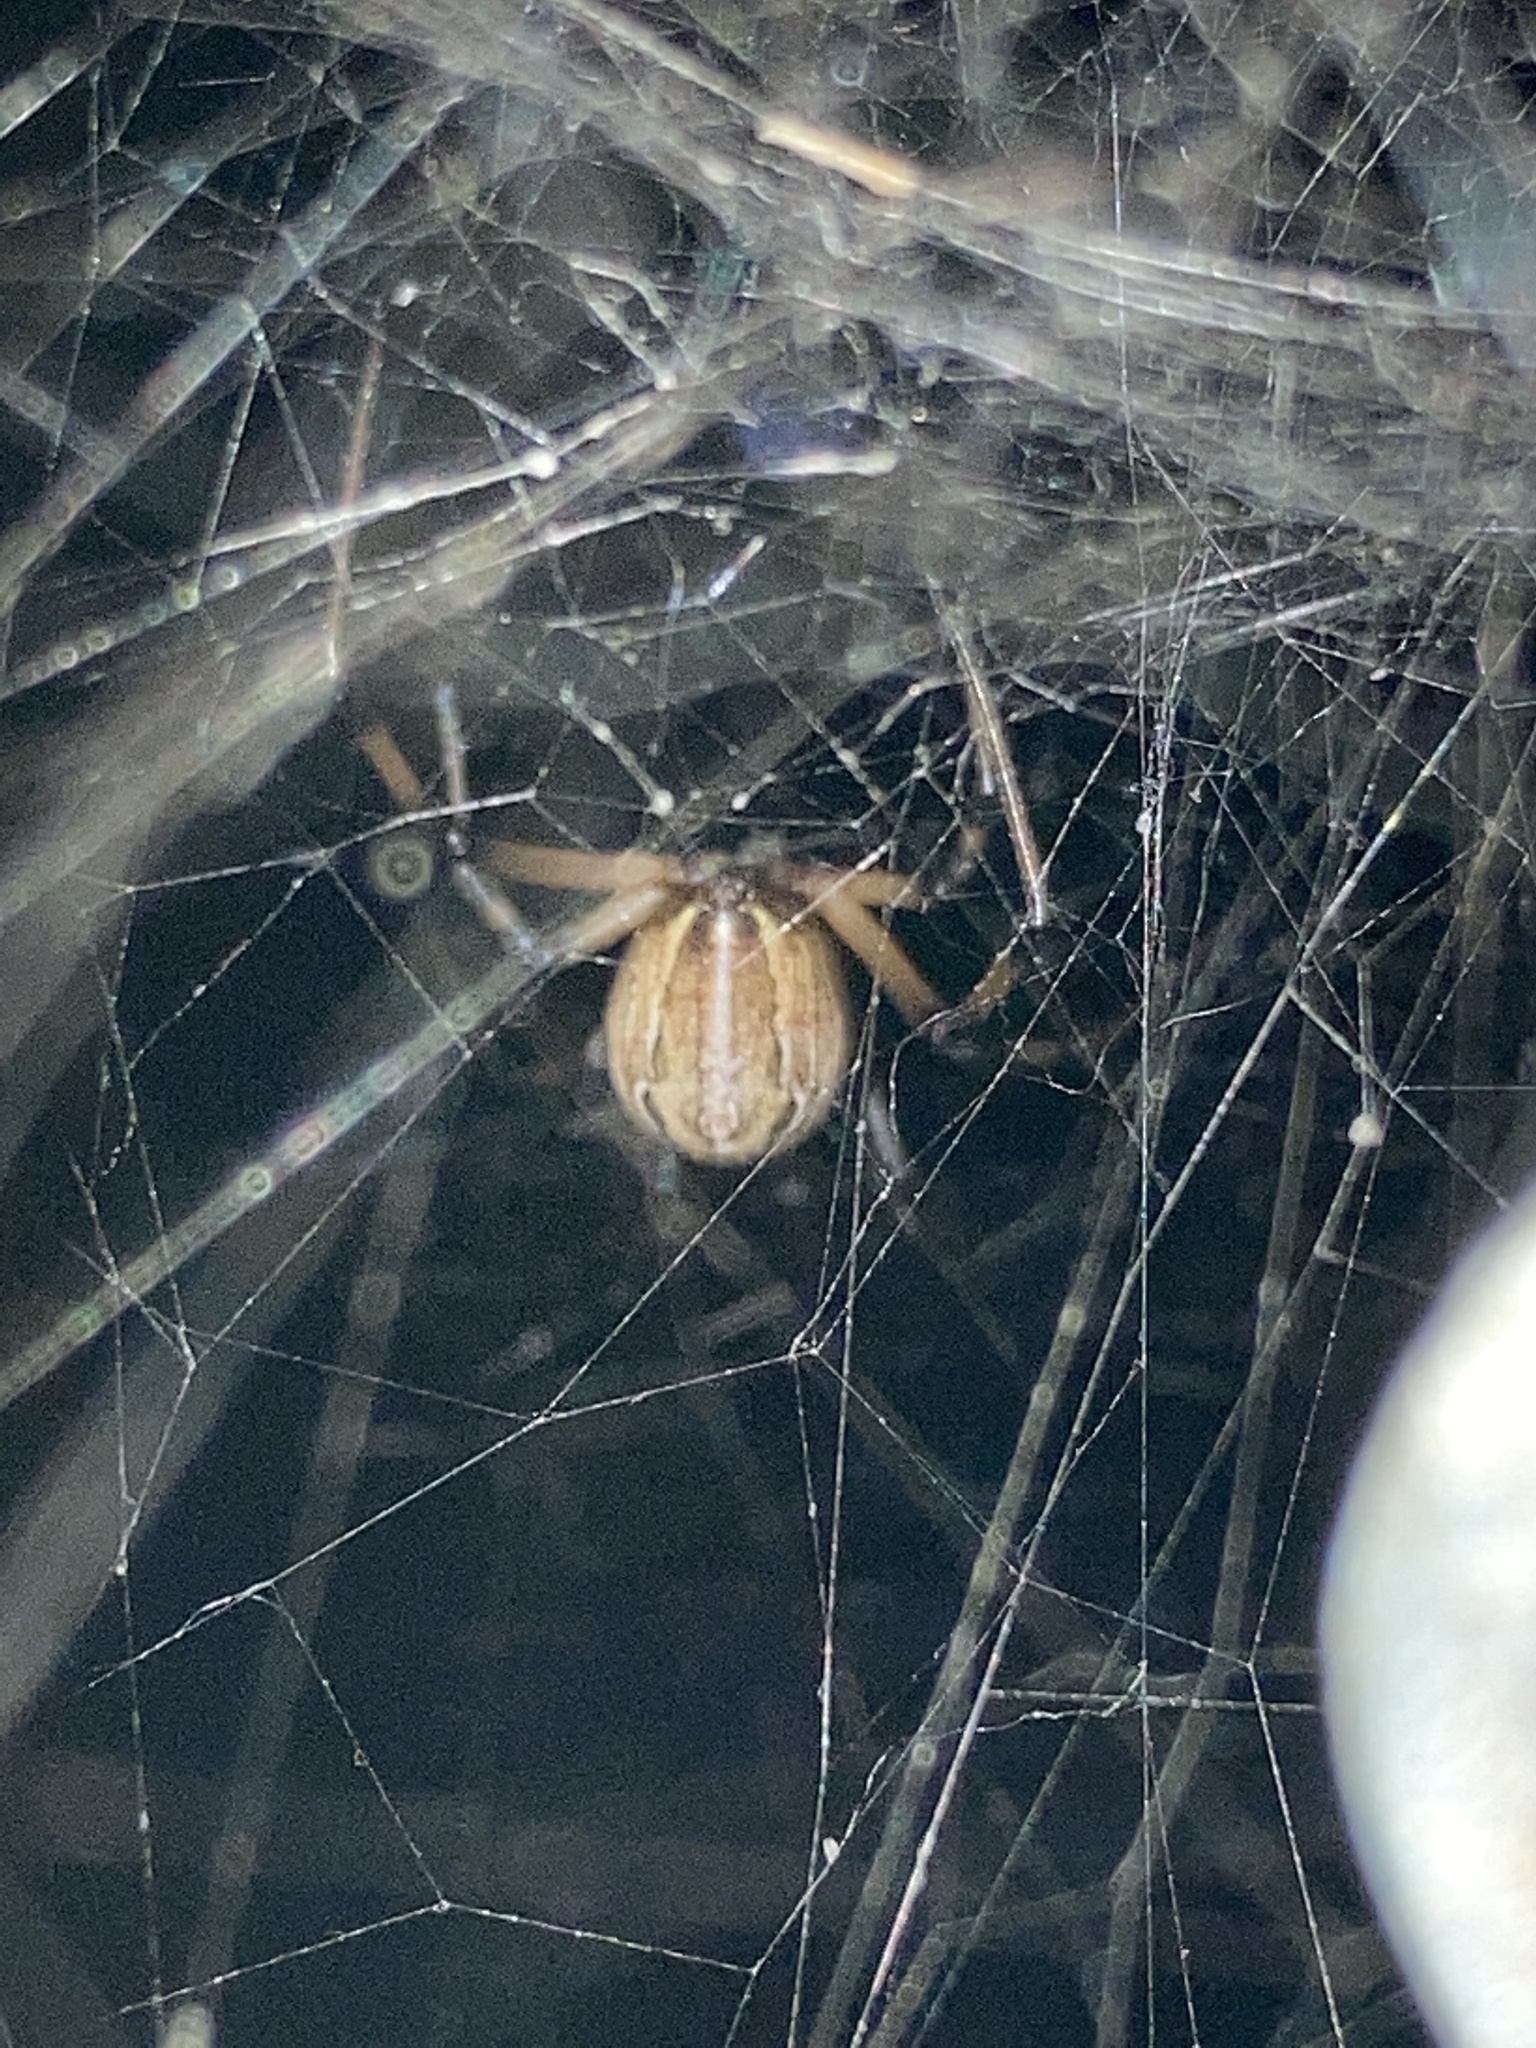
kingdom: Animalia
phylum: Arthropoda
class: Arachnida
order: Araneae
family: Theridiidae
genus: Latrodectus
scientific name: Latrodectus geometricus
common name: Brown widow spider
